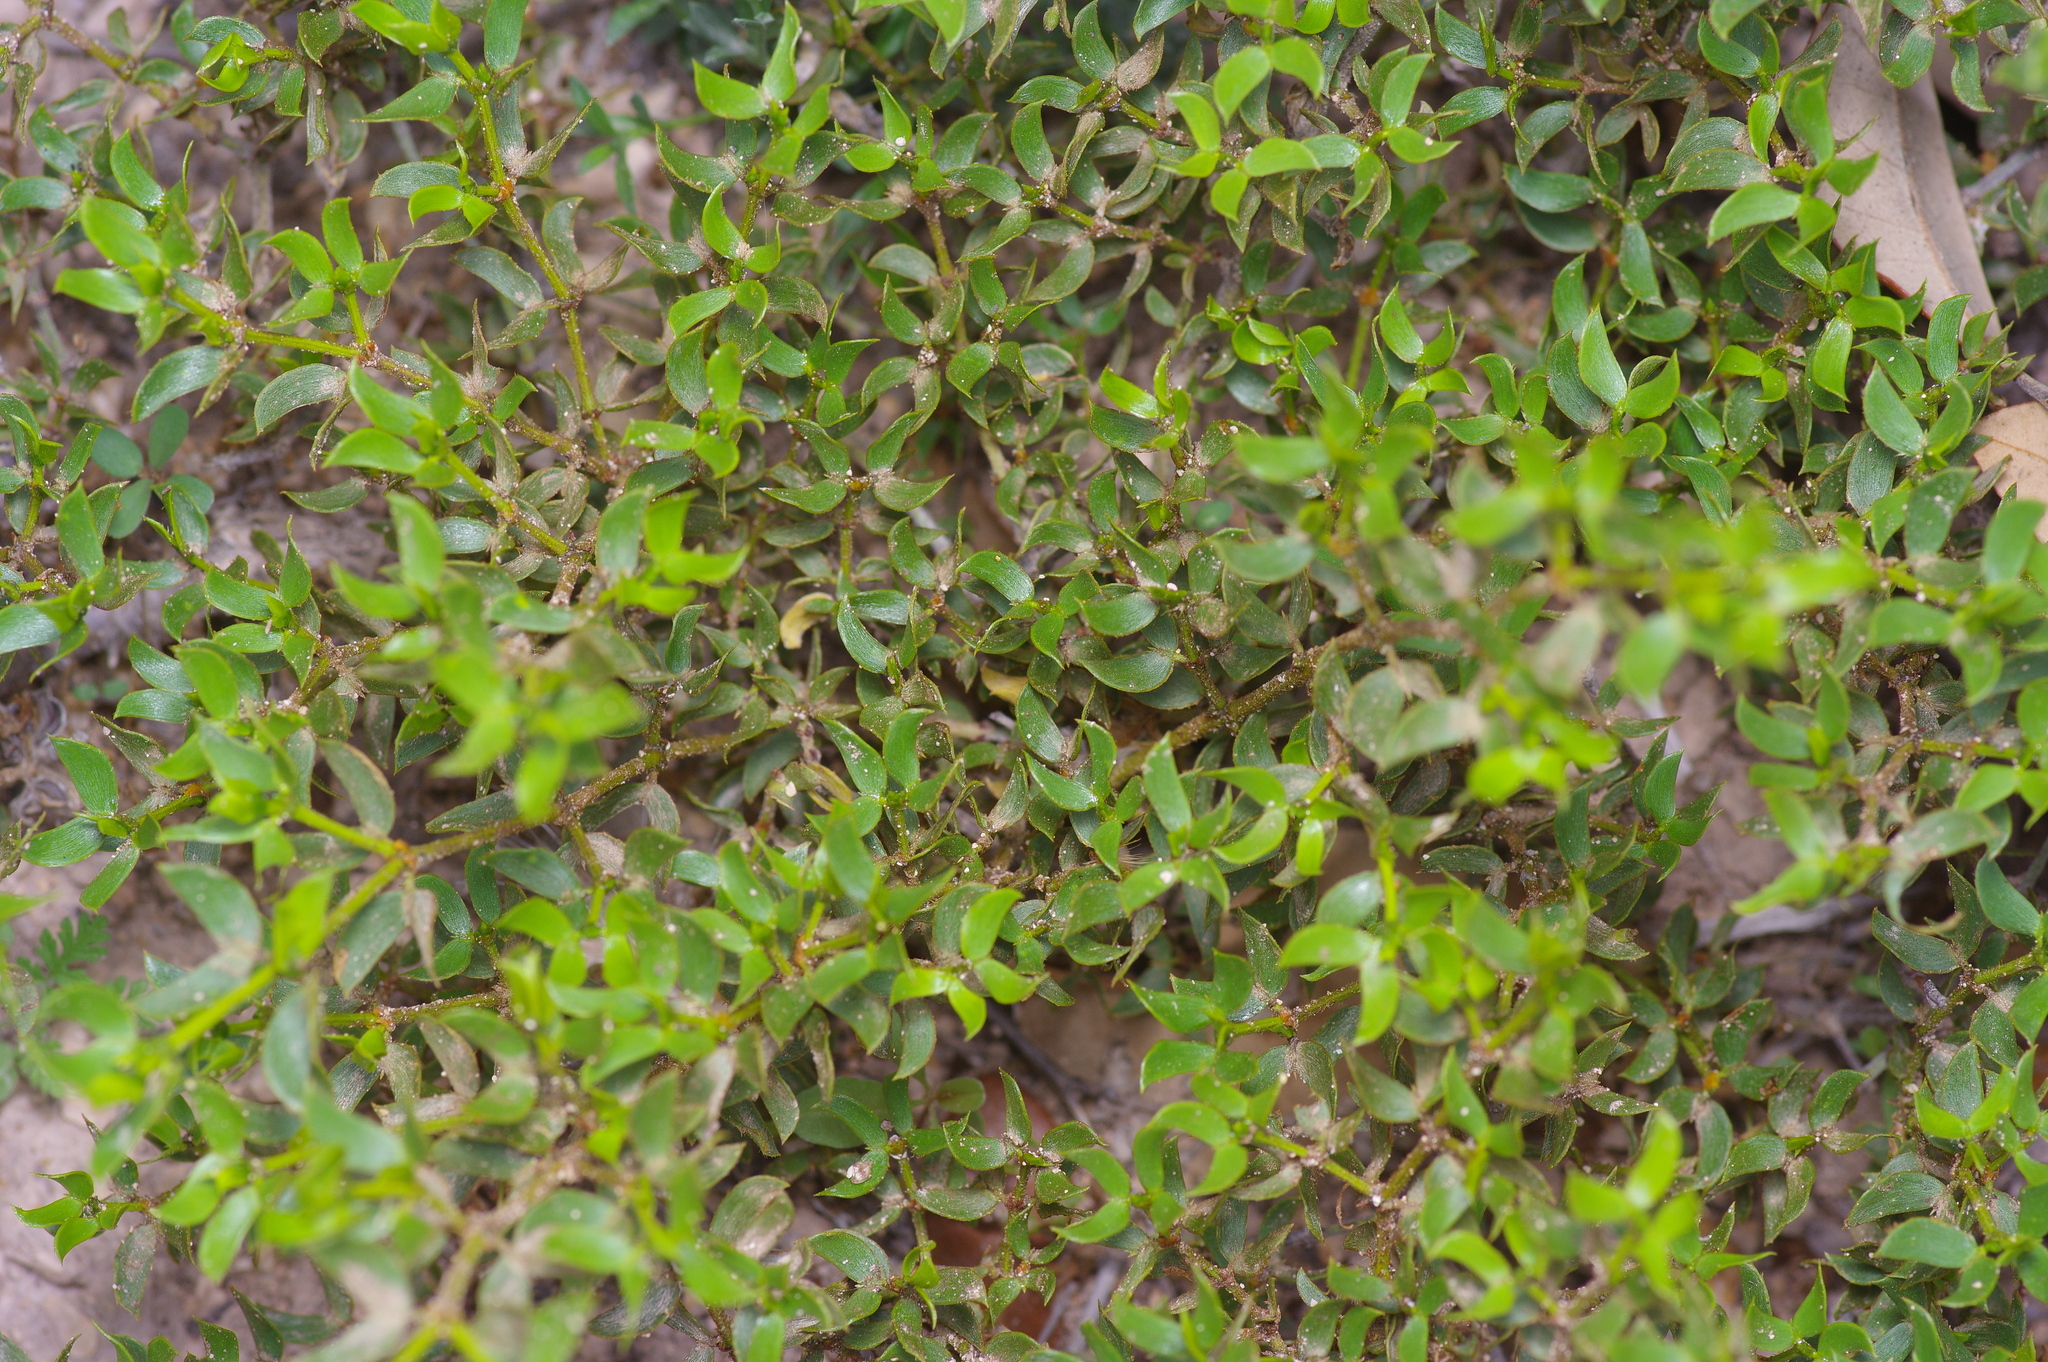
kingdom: Plantae
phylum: Tracheophyta
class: Magnoliopsida
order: Zygophyllales
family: Zygophyllaceae
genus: Larrea
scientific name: Larrea tridentata
